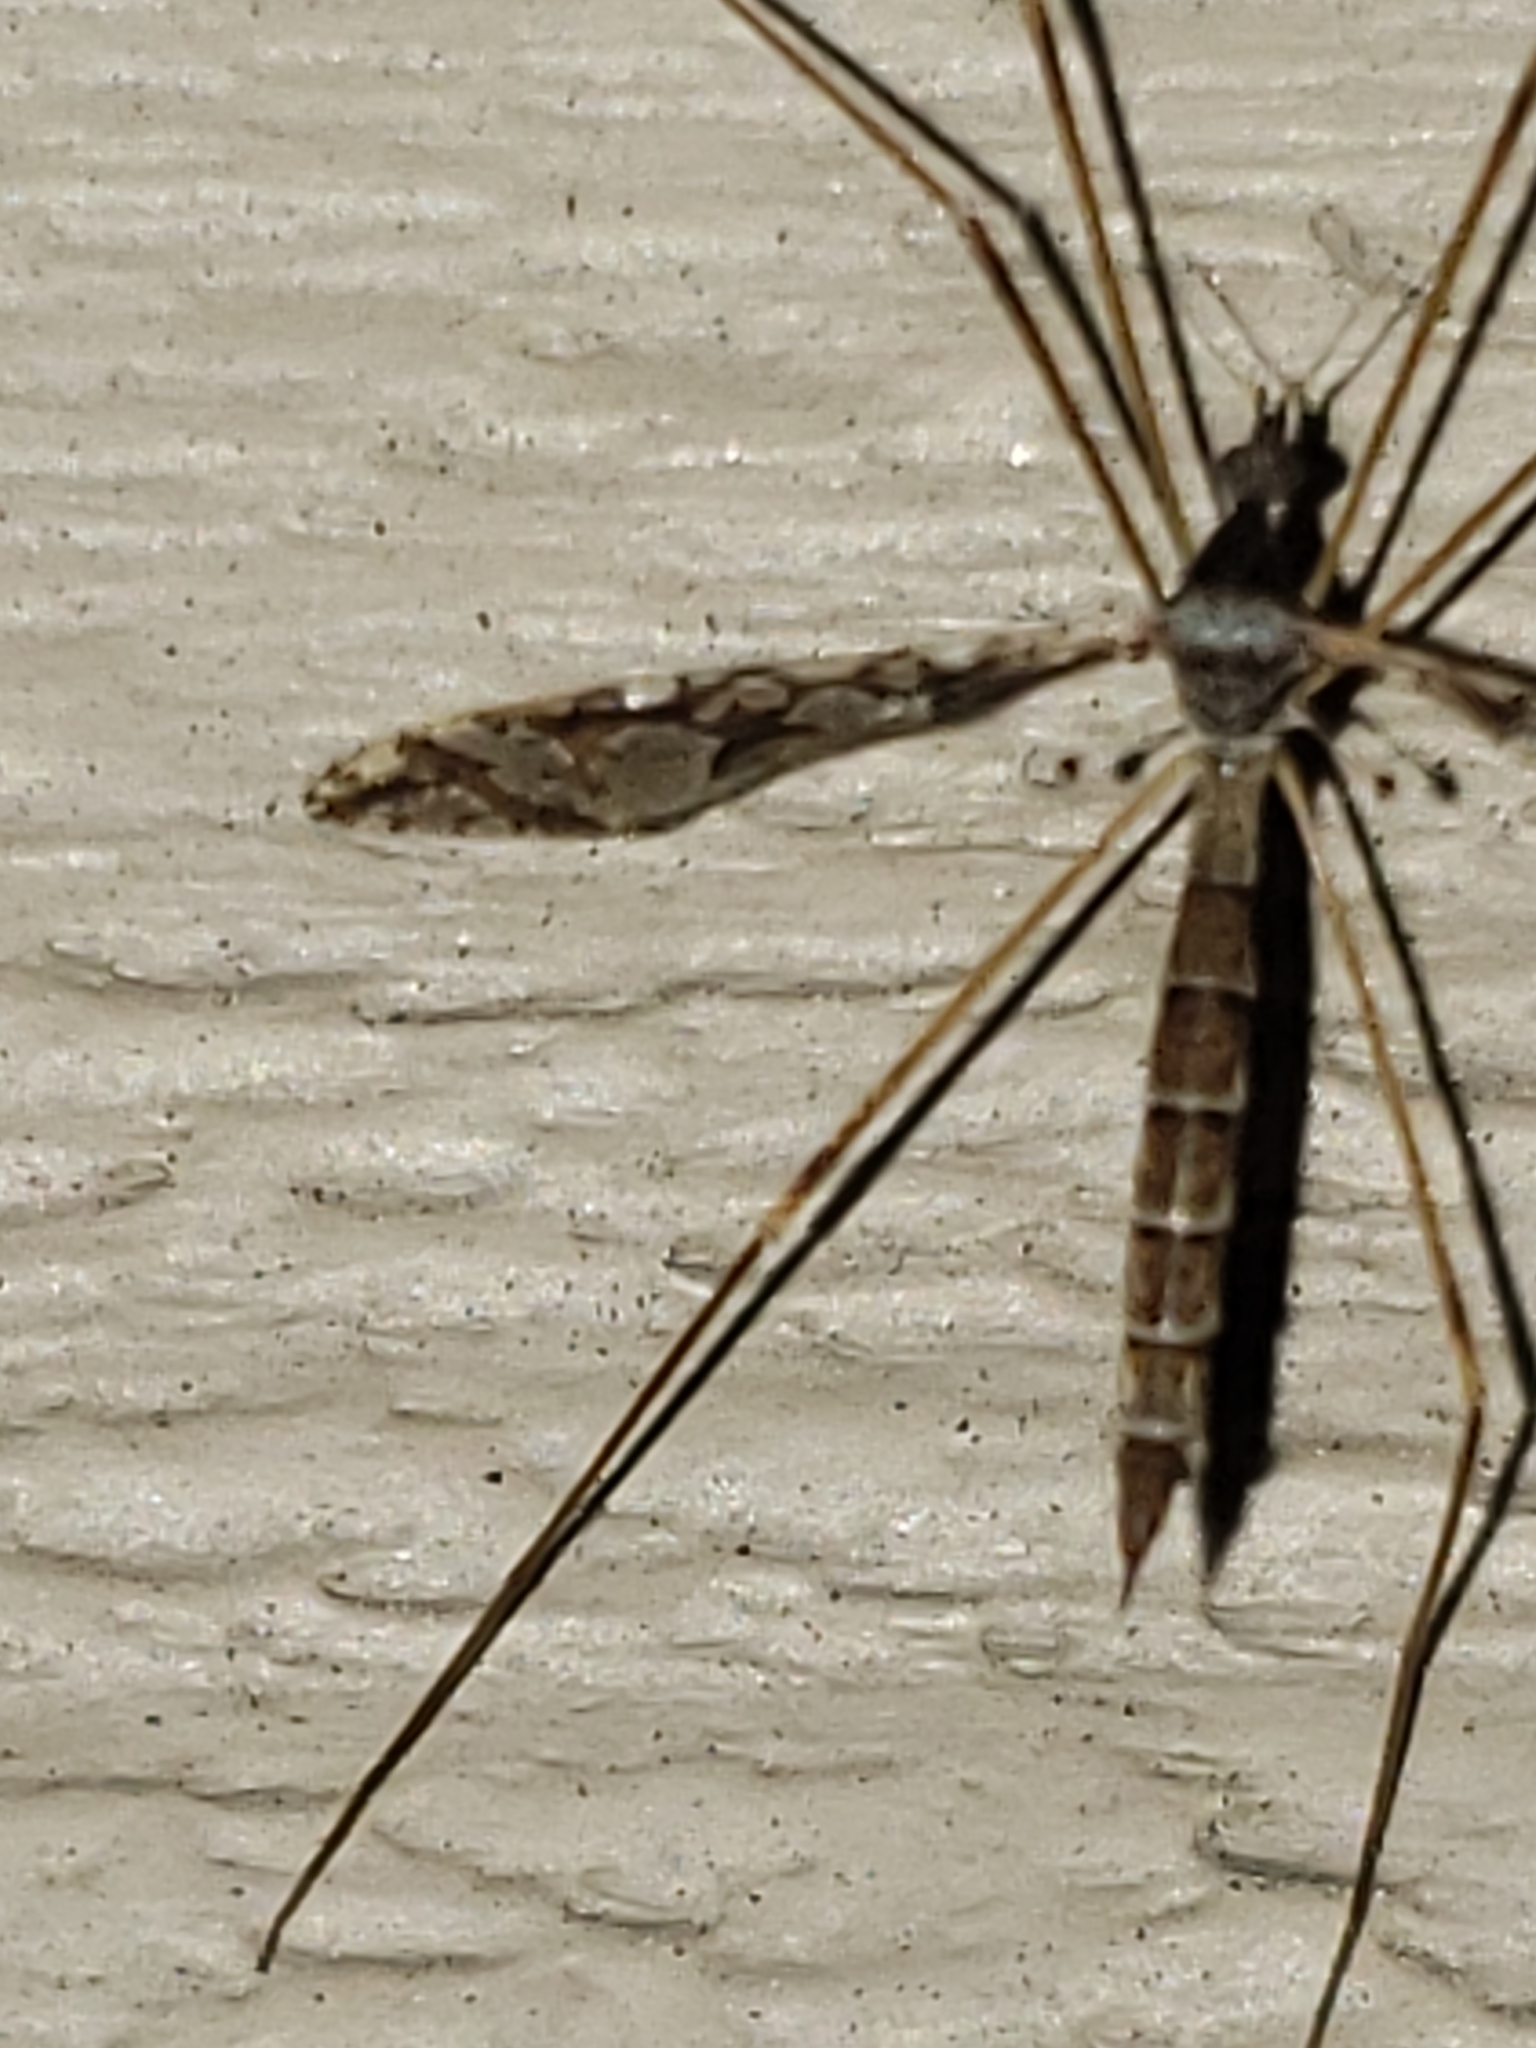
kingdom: Animalia
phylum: Arthropoda
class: Insecta
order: Diptera
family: Limoniidae
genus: Epiphragma
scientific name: Epiphragma solatrix
